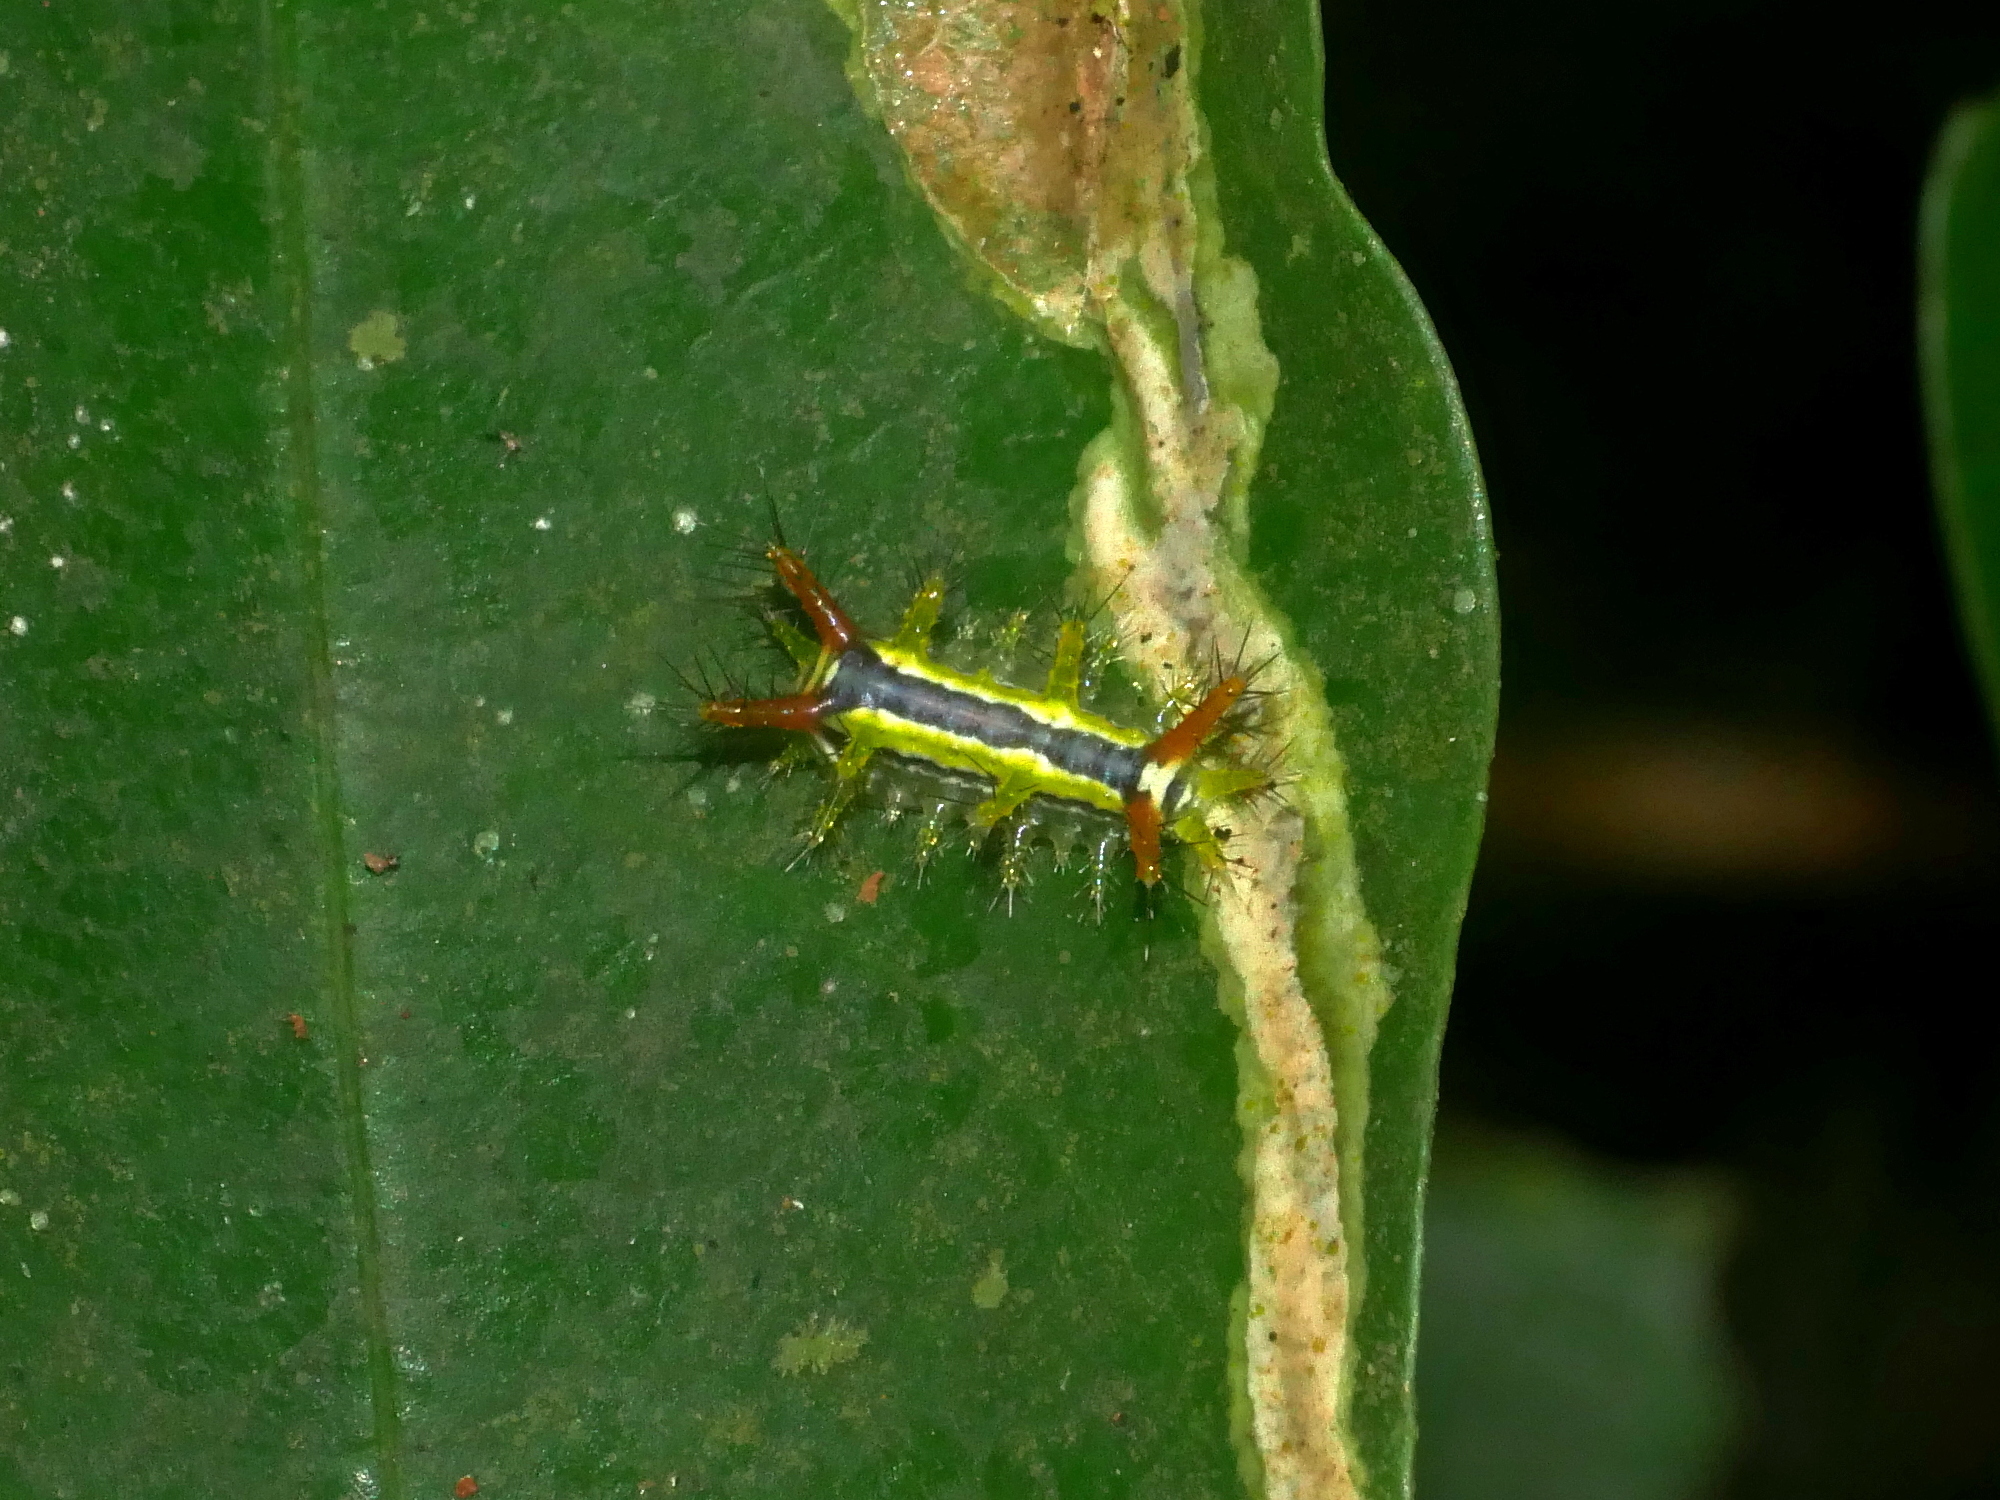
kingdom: Animalia
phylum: Arthropoda
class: Insecta
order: Lepidoptera
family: Limacodidae
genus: Birthamula
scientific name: Birthamula rufa
